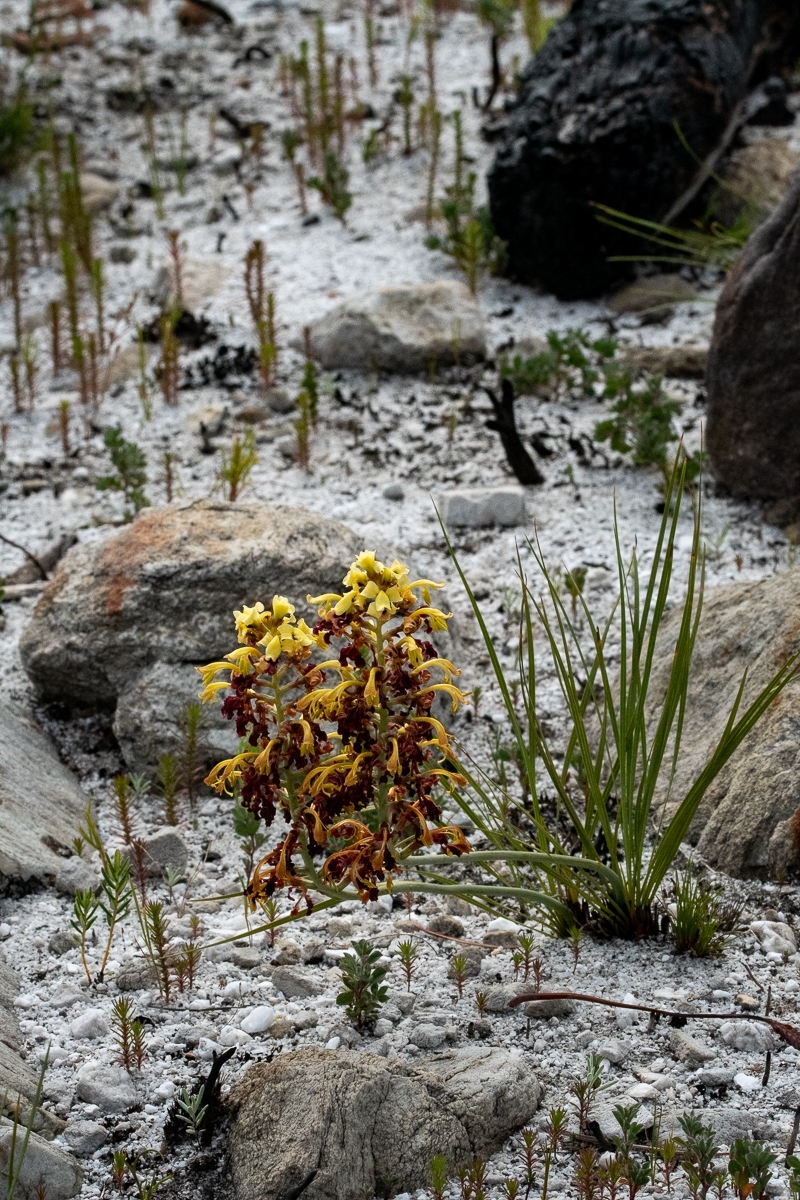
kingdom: Plantae
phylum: Tracheophyta
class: Liliopsida
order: Asparagales
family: Iridaceae
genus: Tritoniopsis
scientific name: Tritoniopsis parviflora
